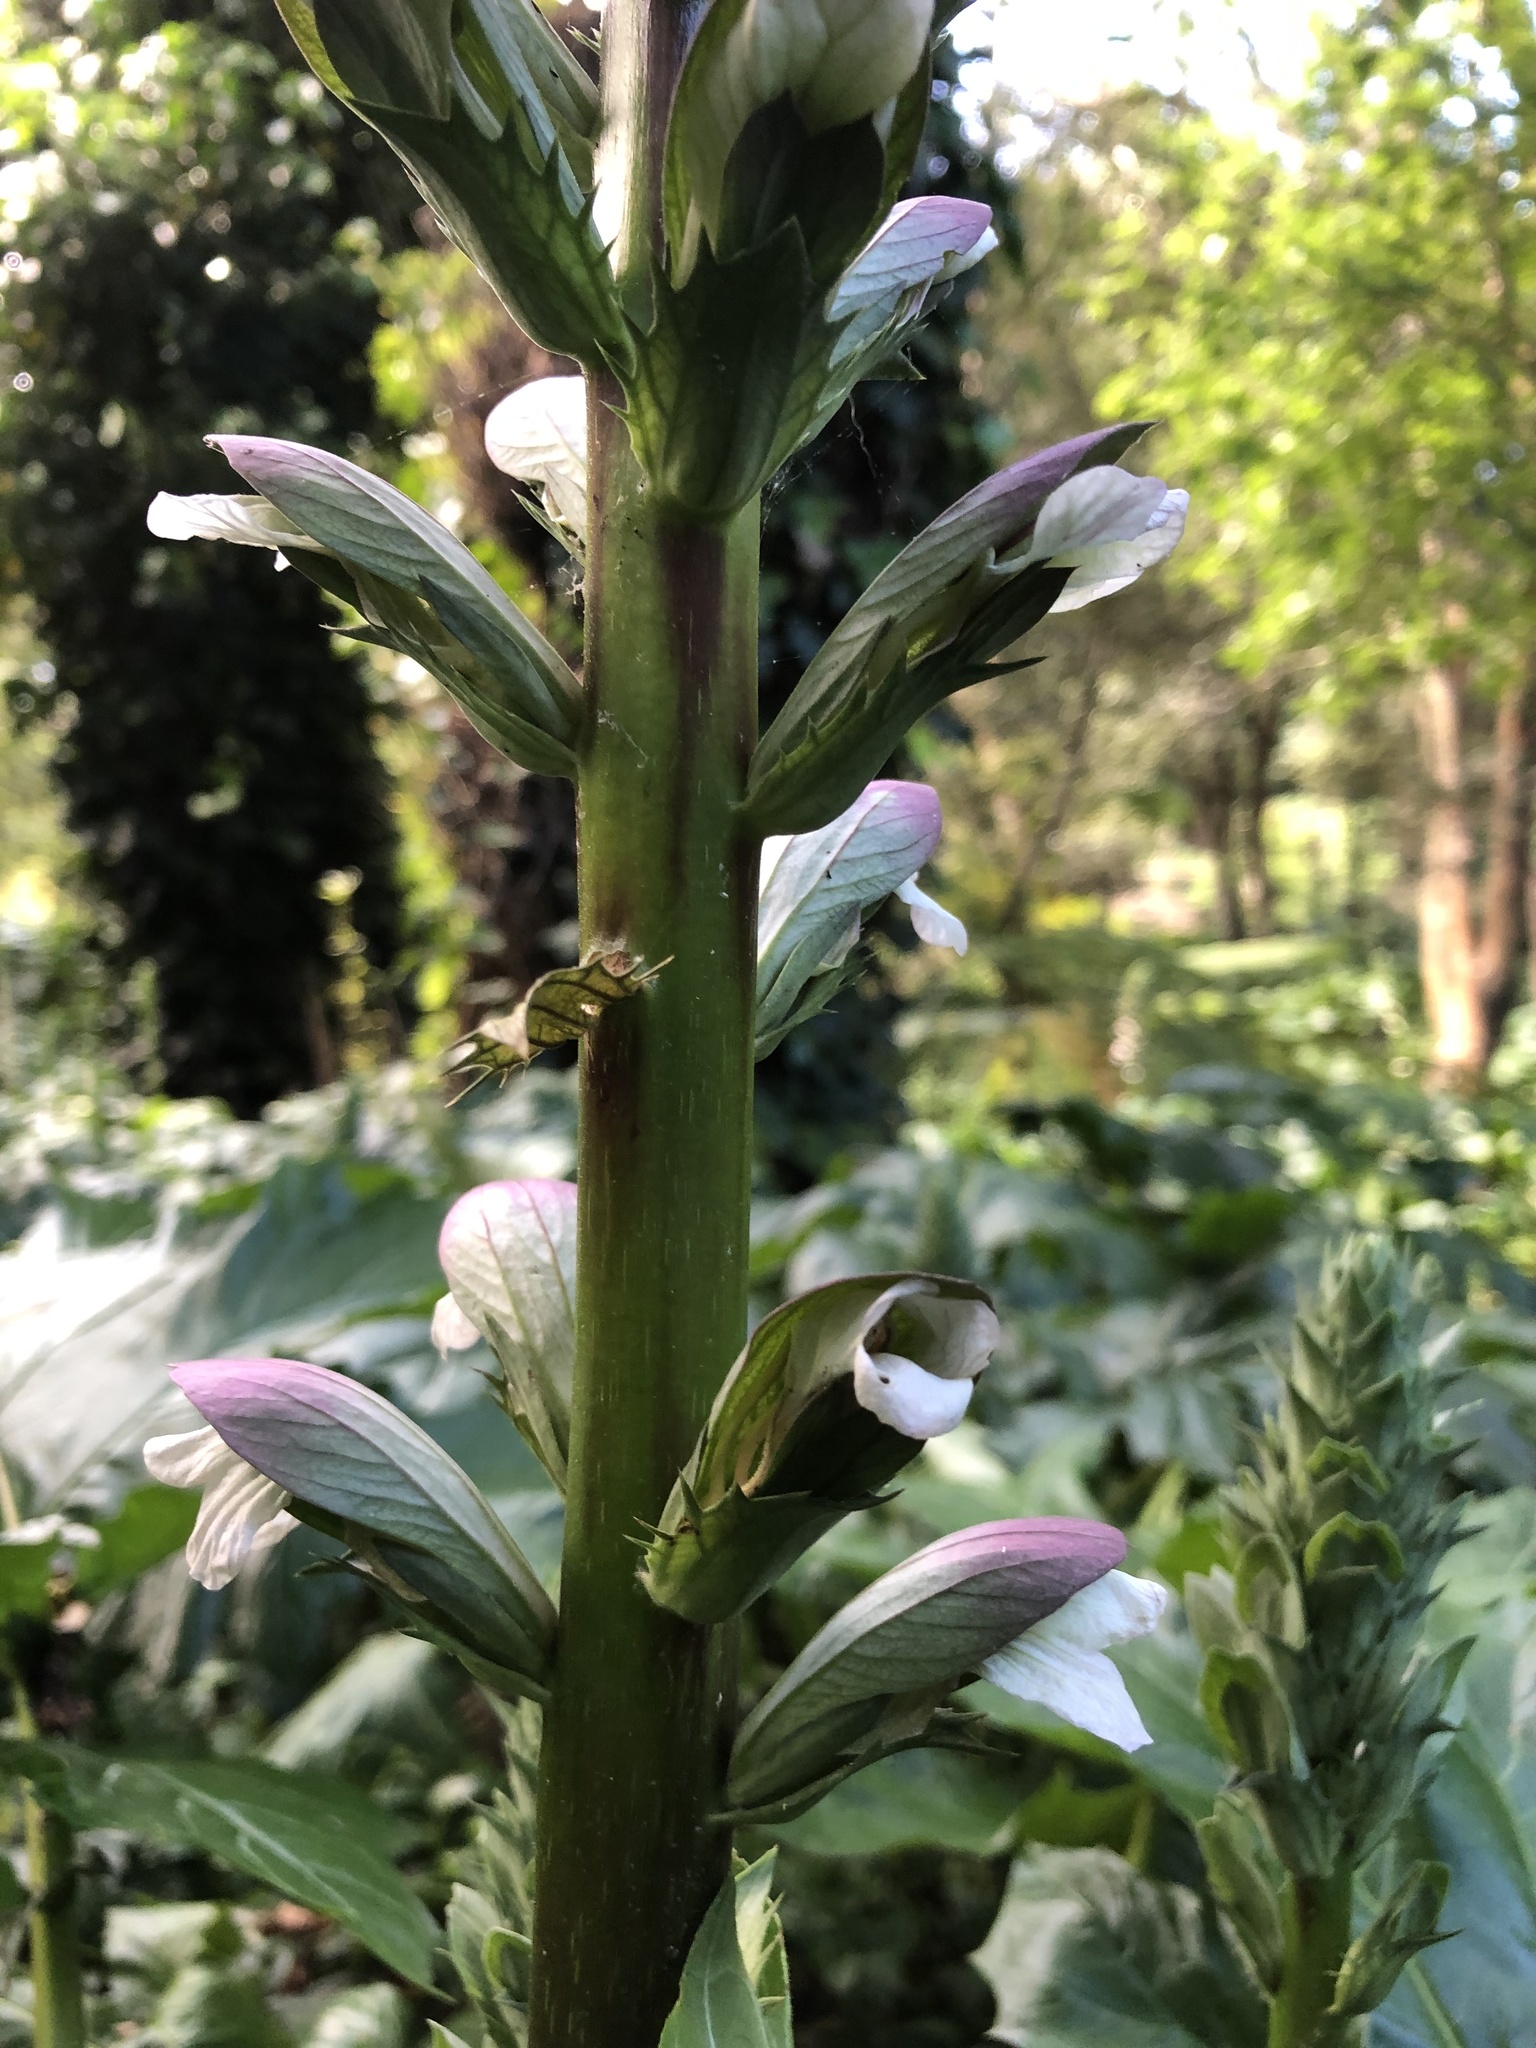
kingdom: Plantae
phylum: Tracheophyta
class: Magnoliopsida
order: Lamiales
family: Acanthaceae
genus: Acanthus
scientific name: Acanthus mollis
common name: Bear's-breech
